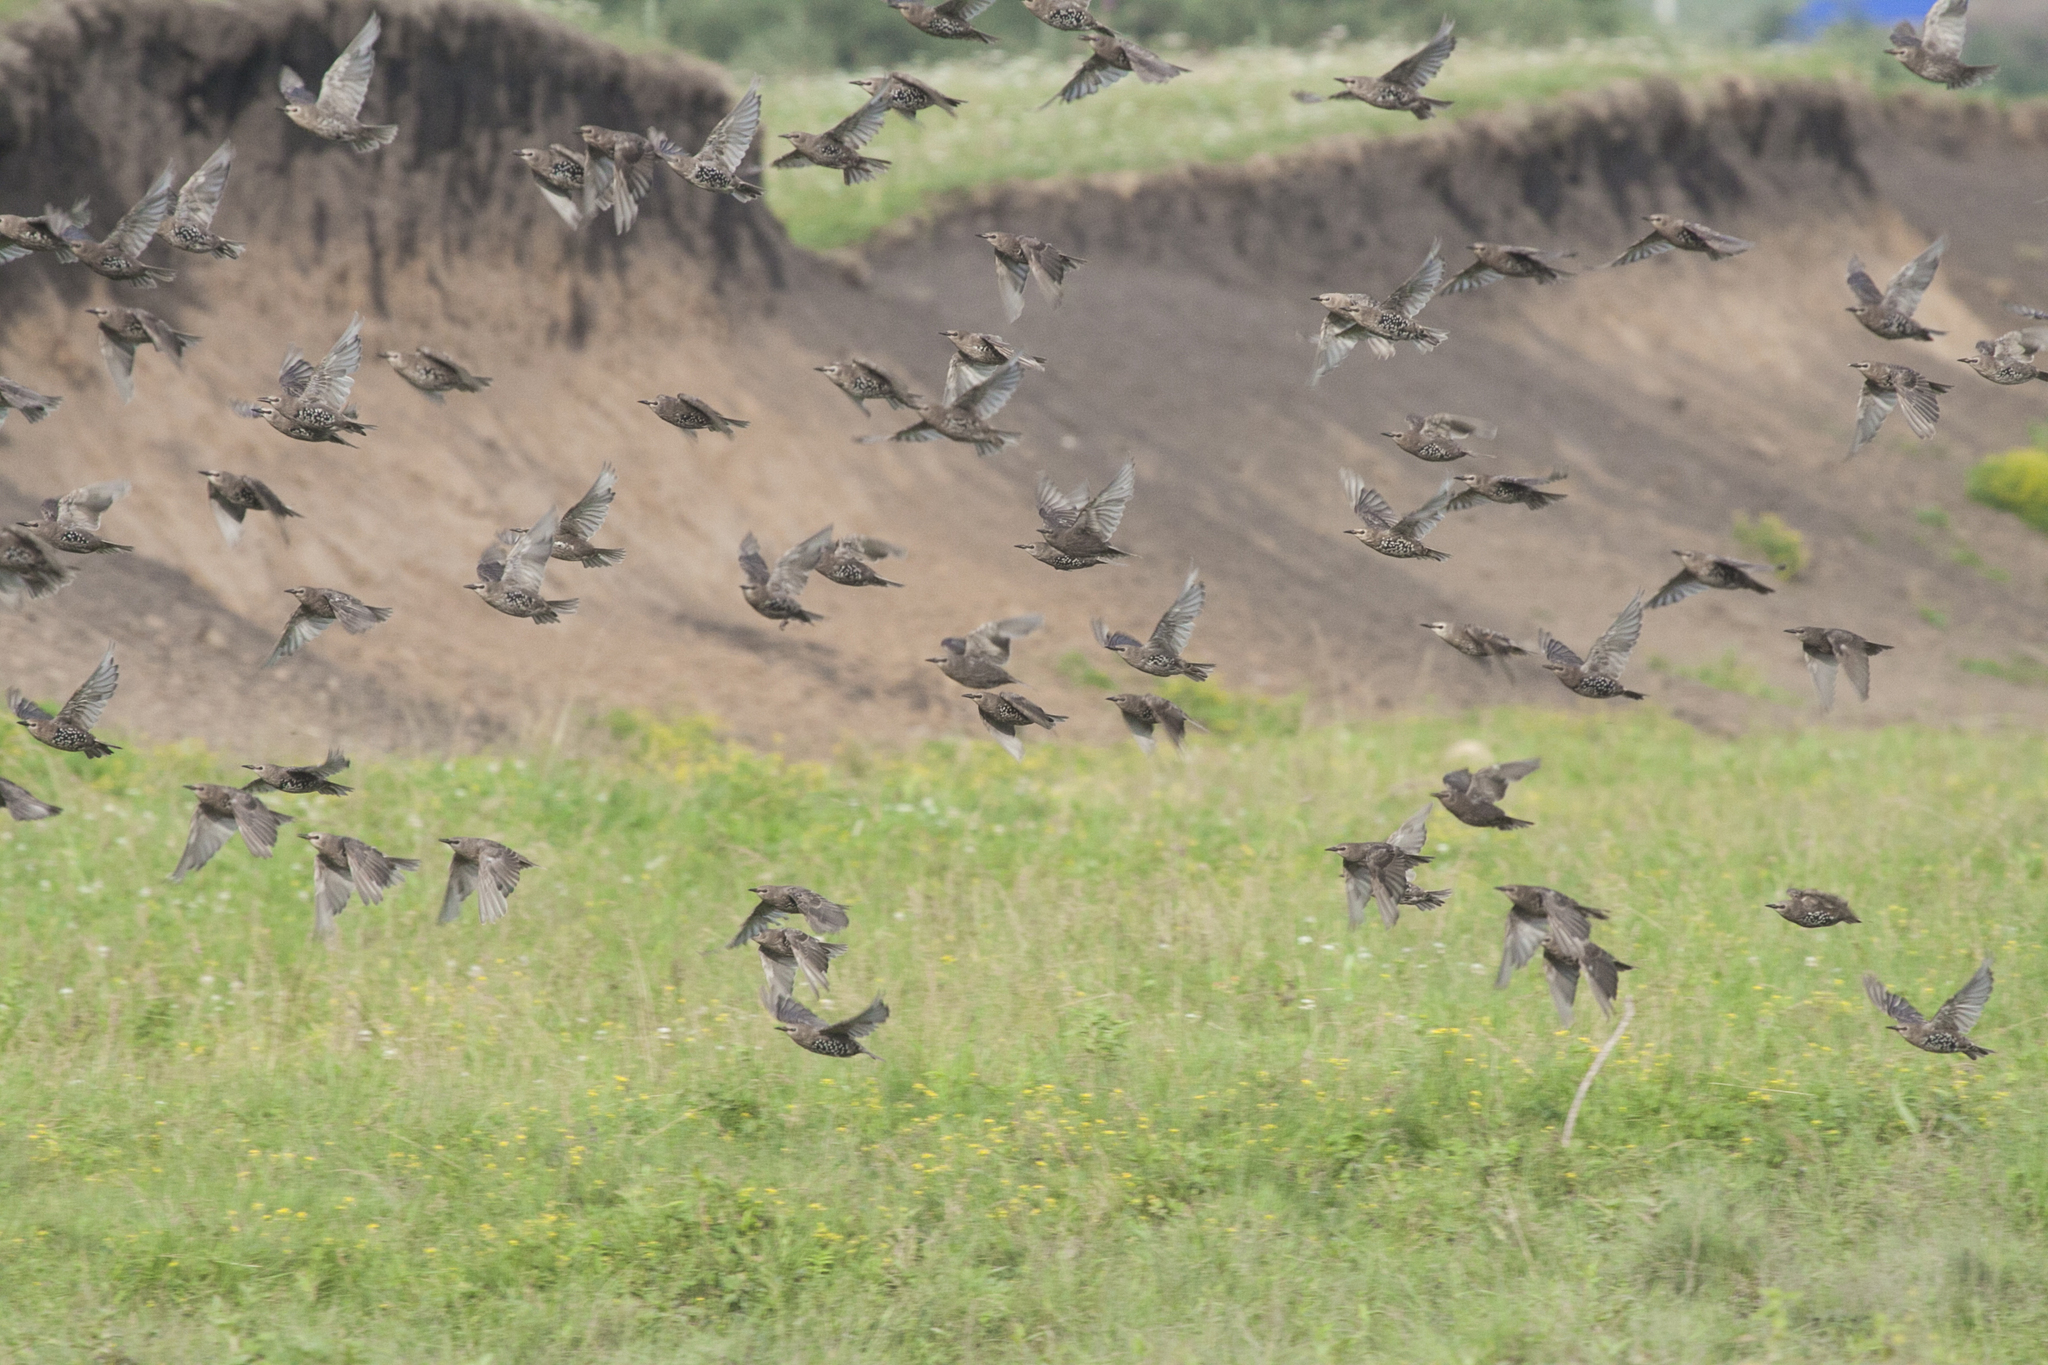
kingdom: Animalia
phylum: Chordata
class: Aves
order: Passeriformes
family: Sturnidae
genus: Sturnus
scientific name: Sturnus vulgaris
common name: Common starling
